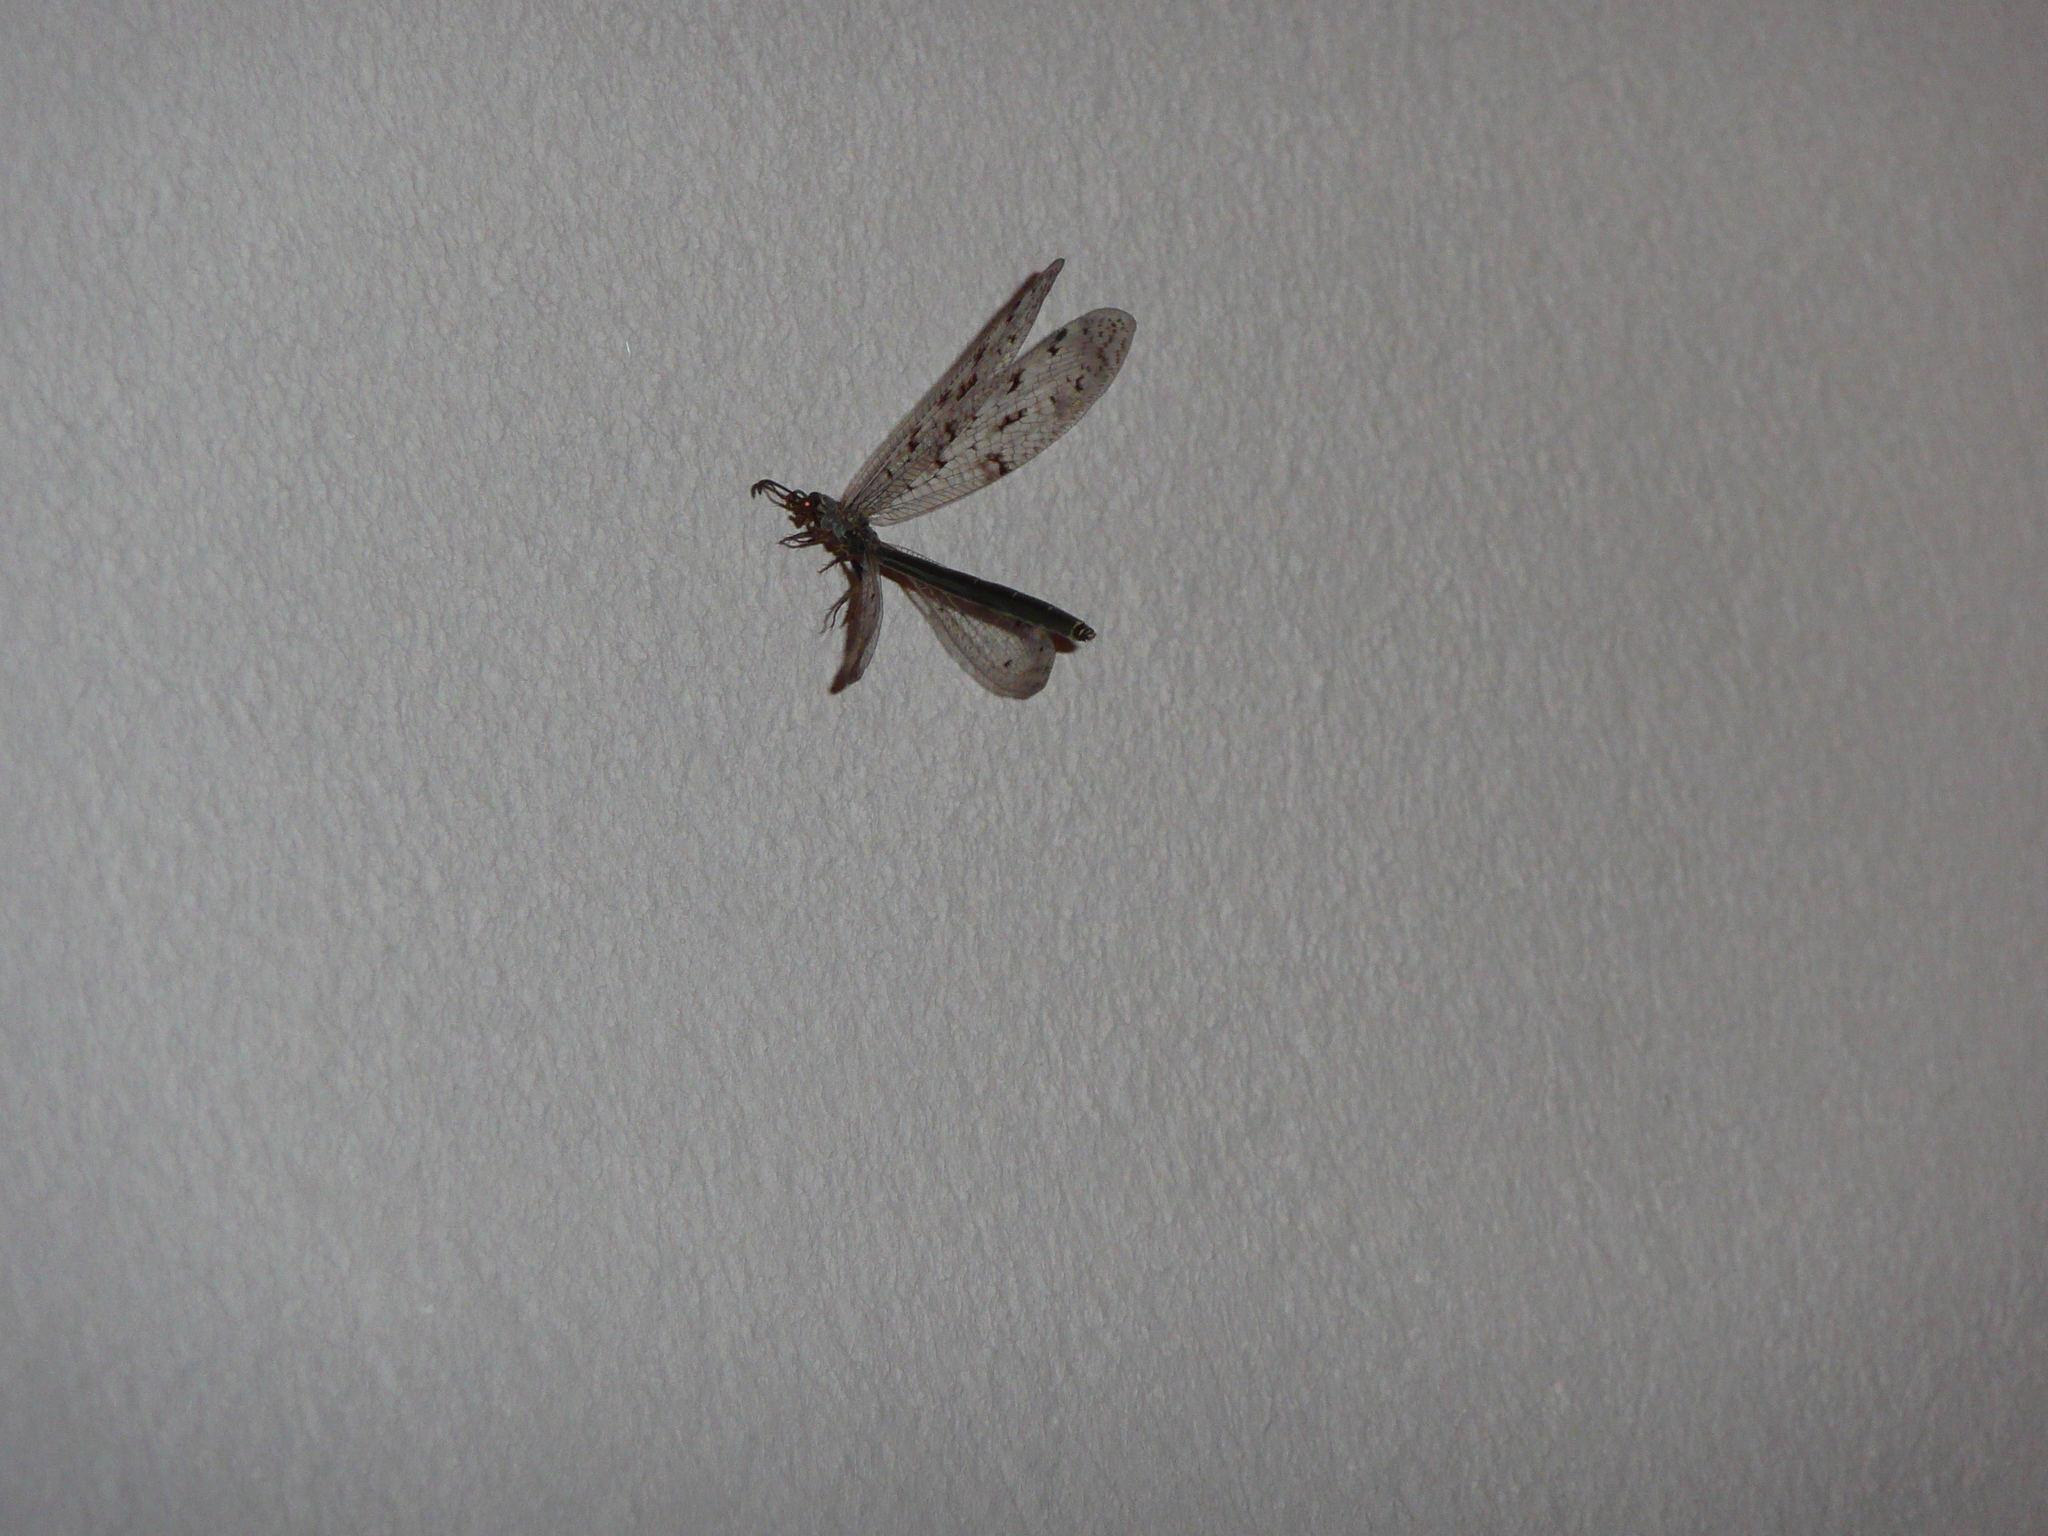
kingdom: Animalia
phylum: Arthropoda
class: Insecta
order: Neuroptera
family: Myrmeleontidae
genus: Euroleon
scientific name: Euroleon nostras
